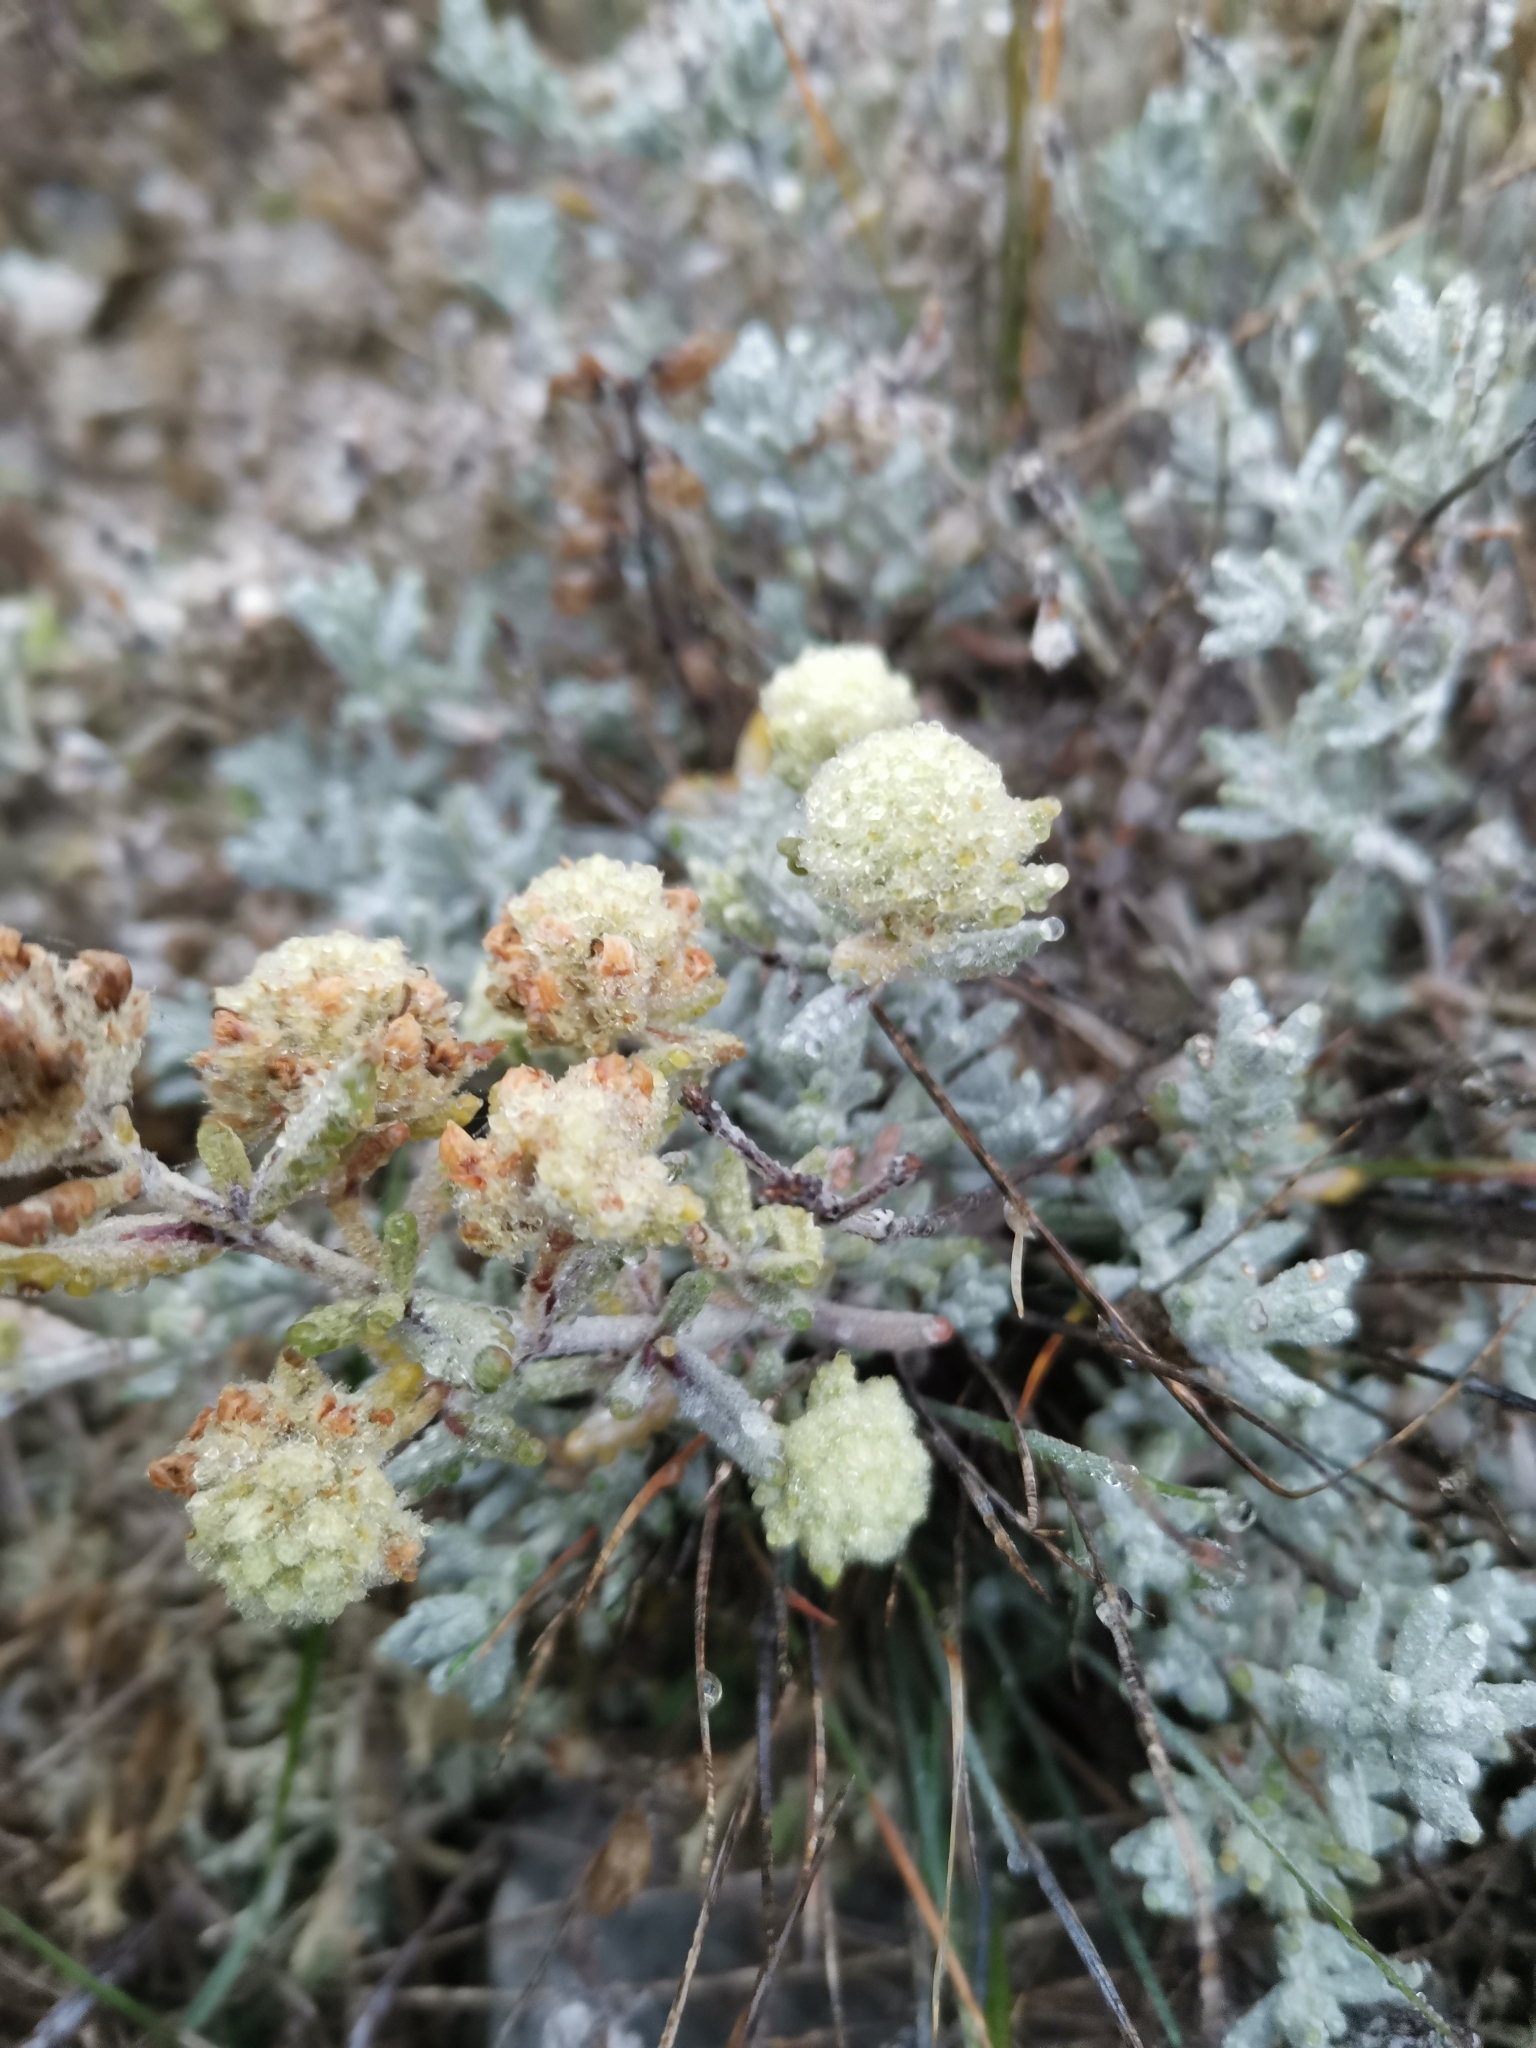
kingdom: Plantae
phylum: Tracheophyta
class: Magnoliopsida
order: Lamiales
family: Lamiaceae
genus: Teucrium
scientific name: Teucrium polium
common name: Poley
